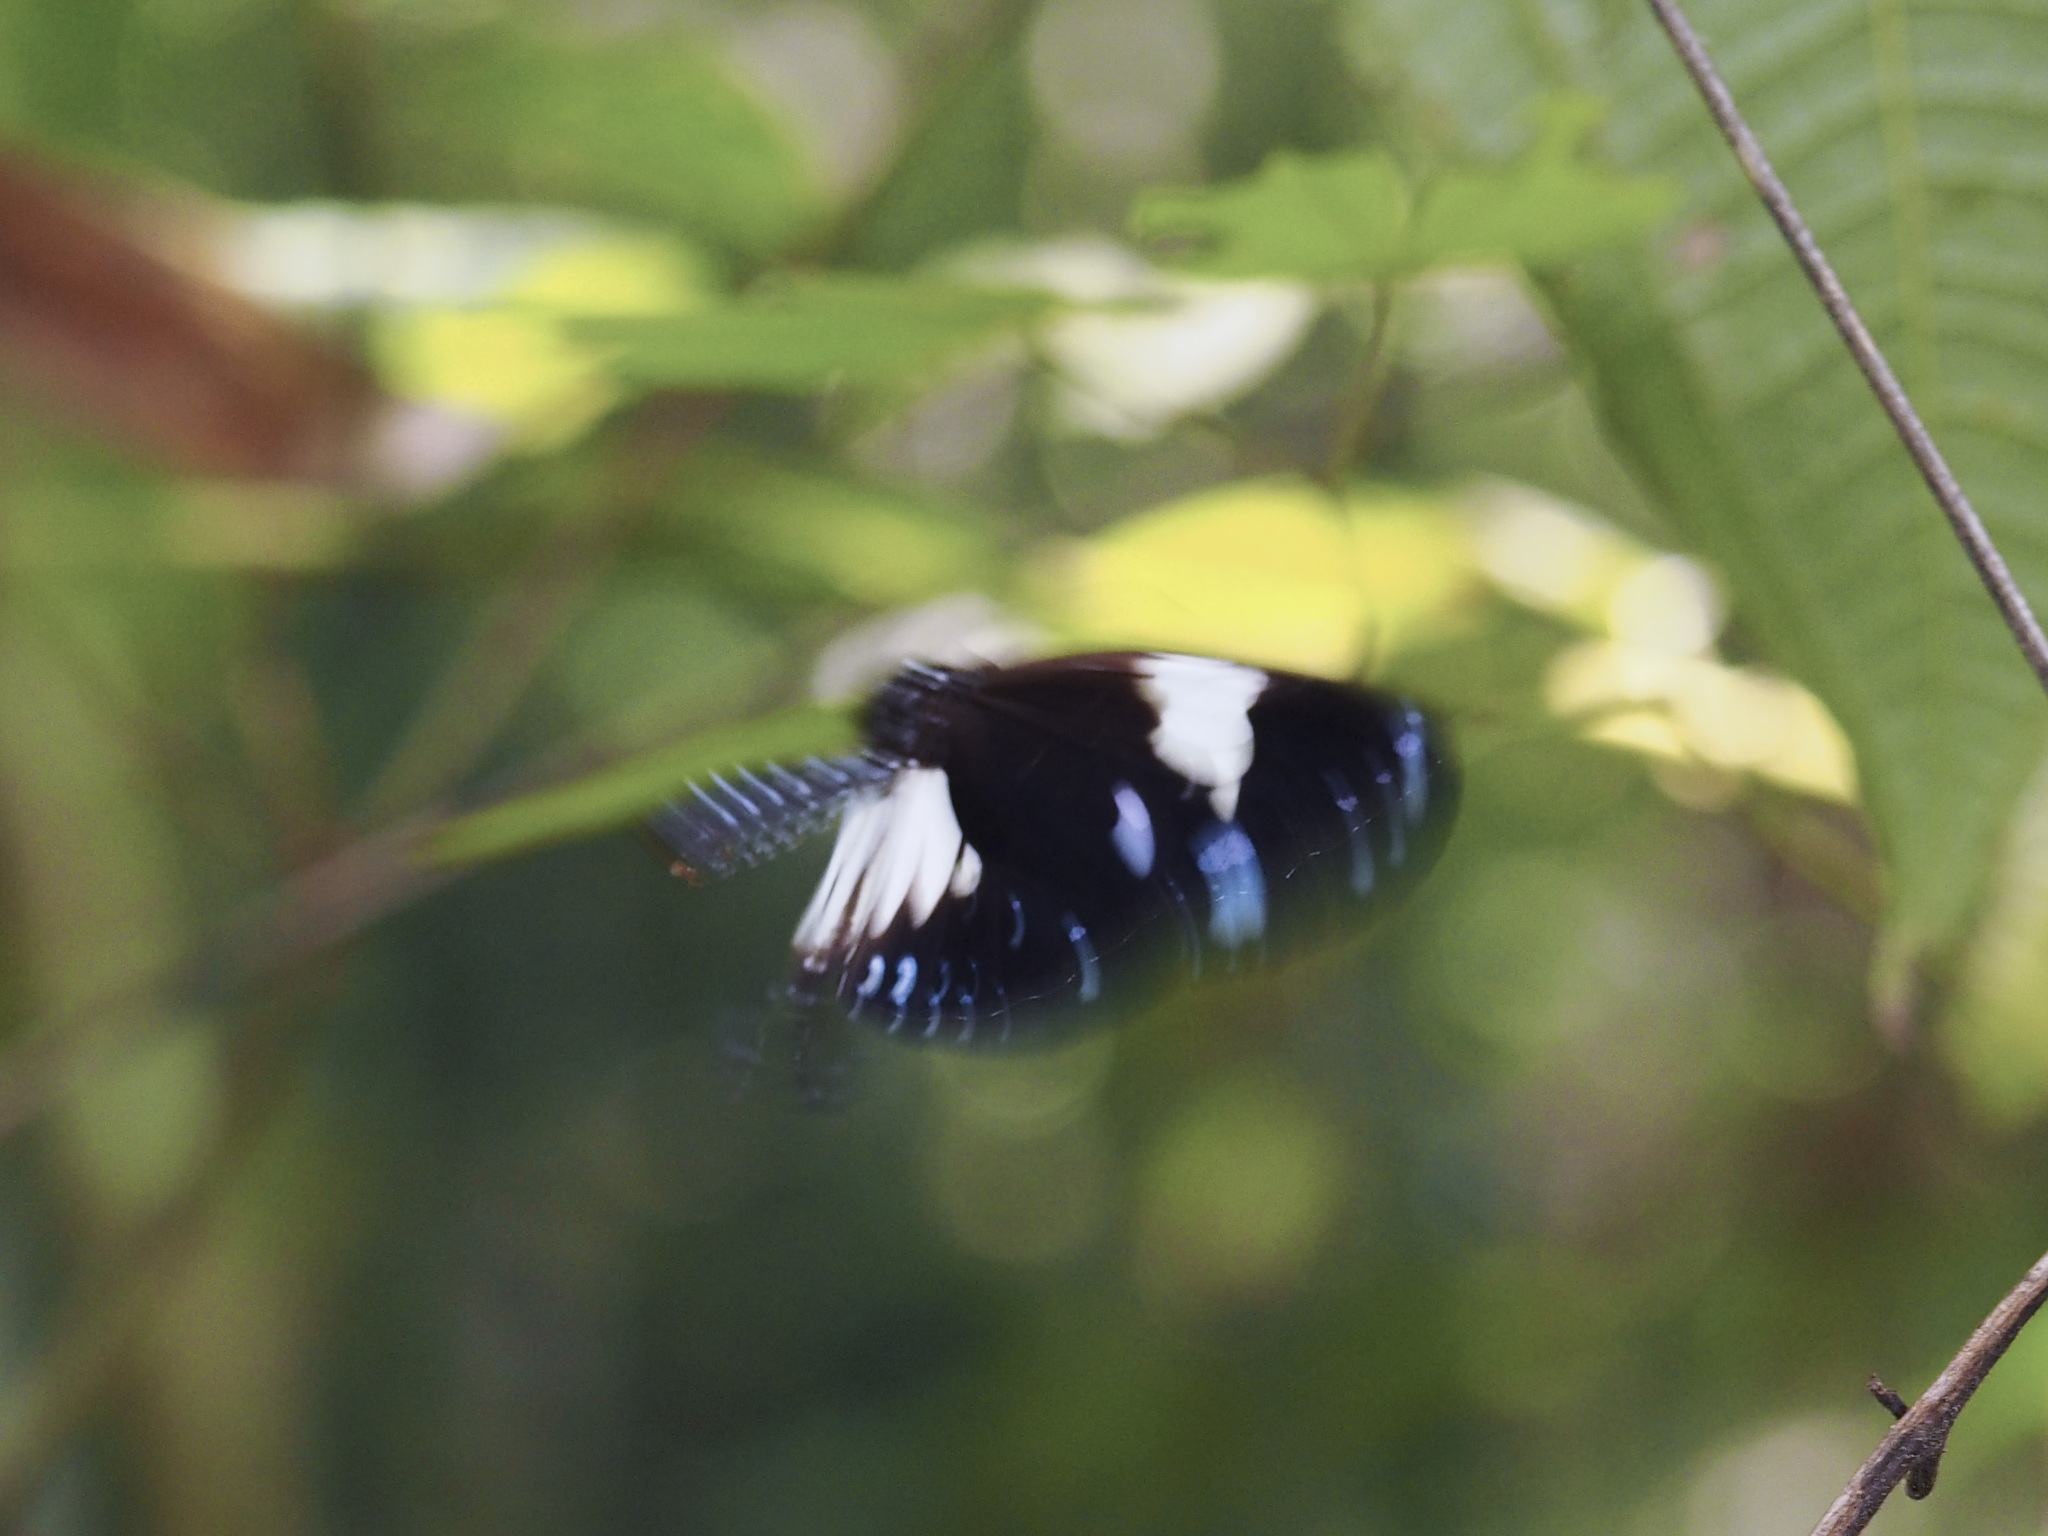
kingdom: Animalia
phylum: Arthropoda
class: Insecta
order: Lepidoptera
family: Nymphalidae
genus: Euploea
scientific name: Euploea radamanthus
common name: Magpie crow butterfly
